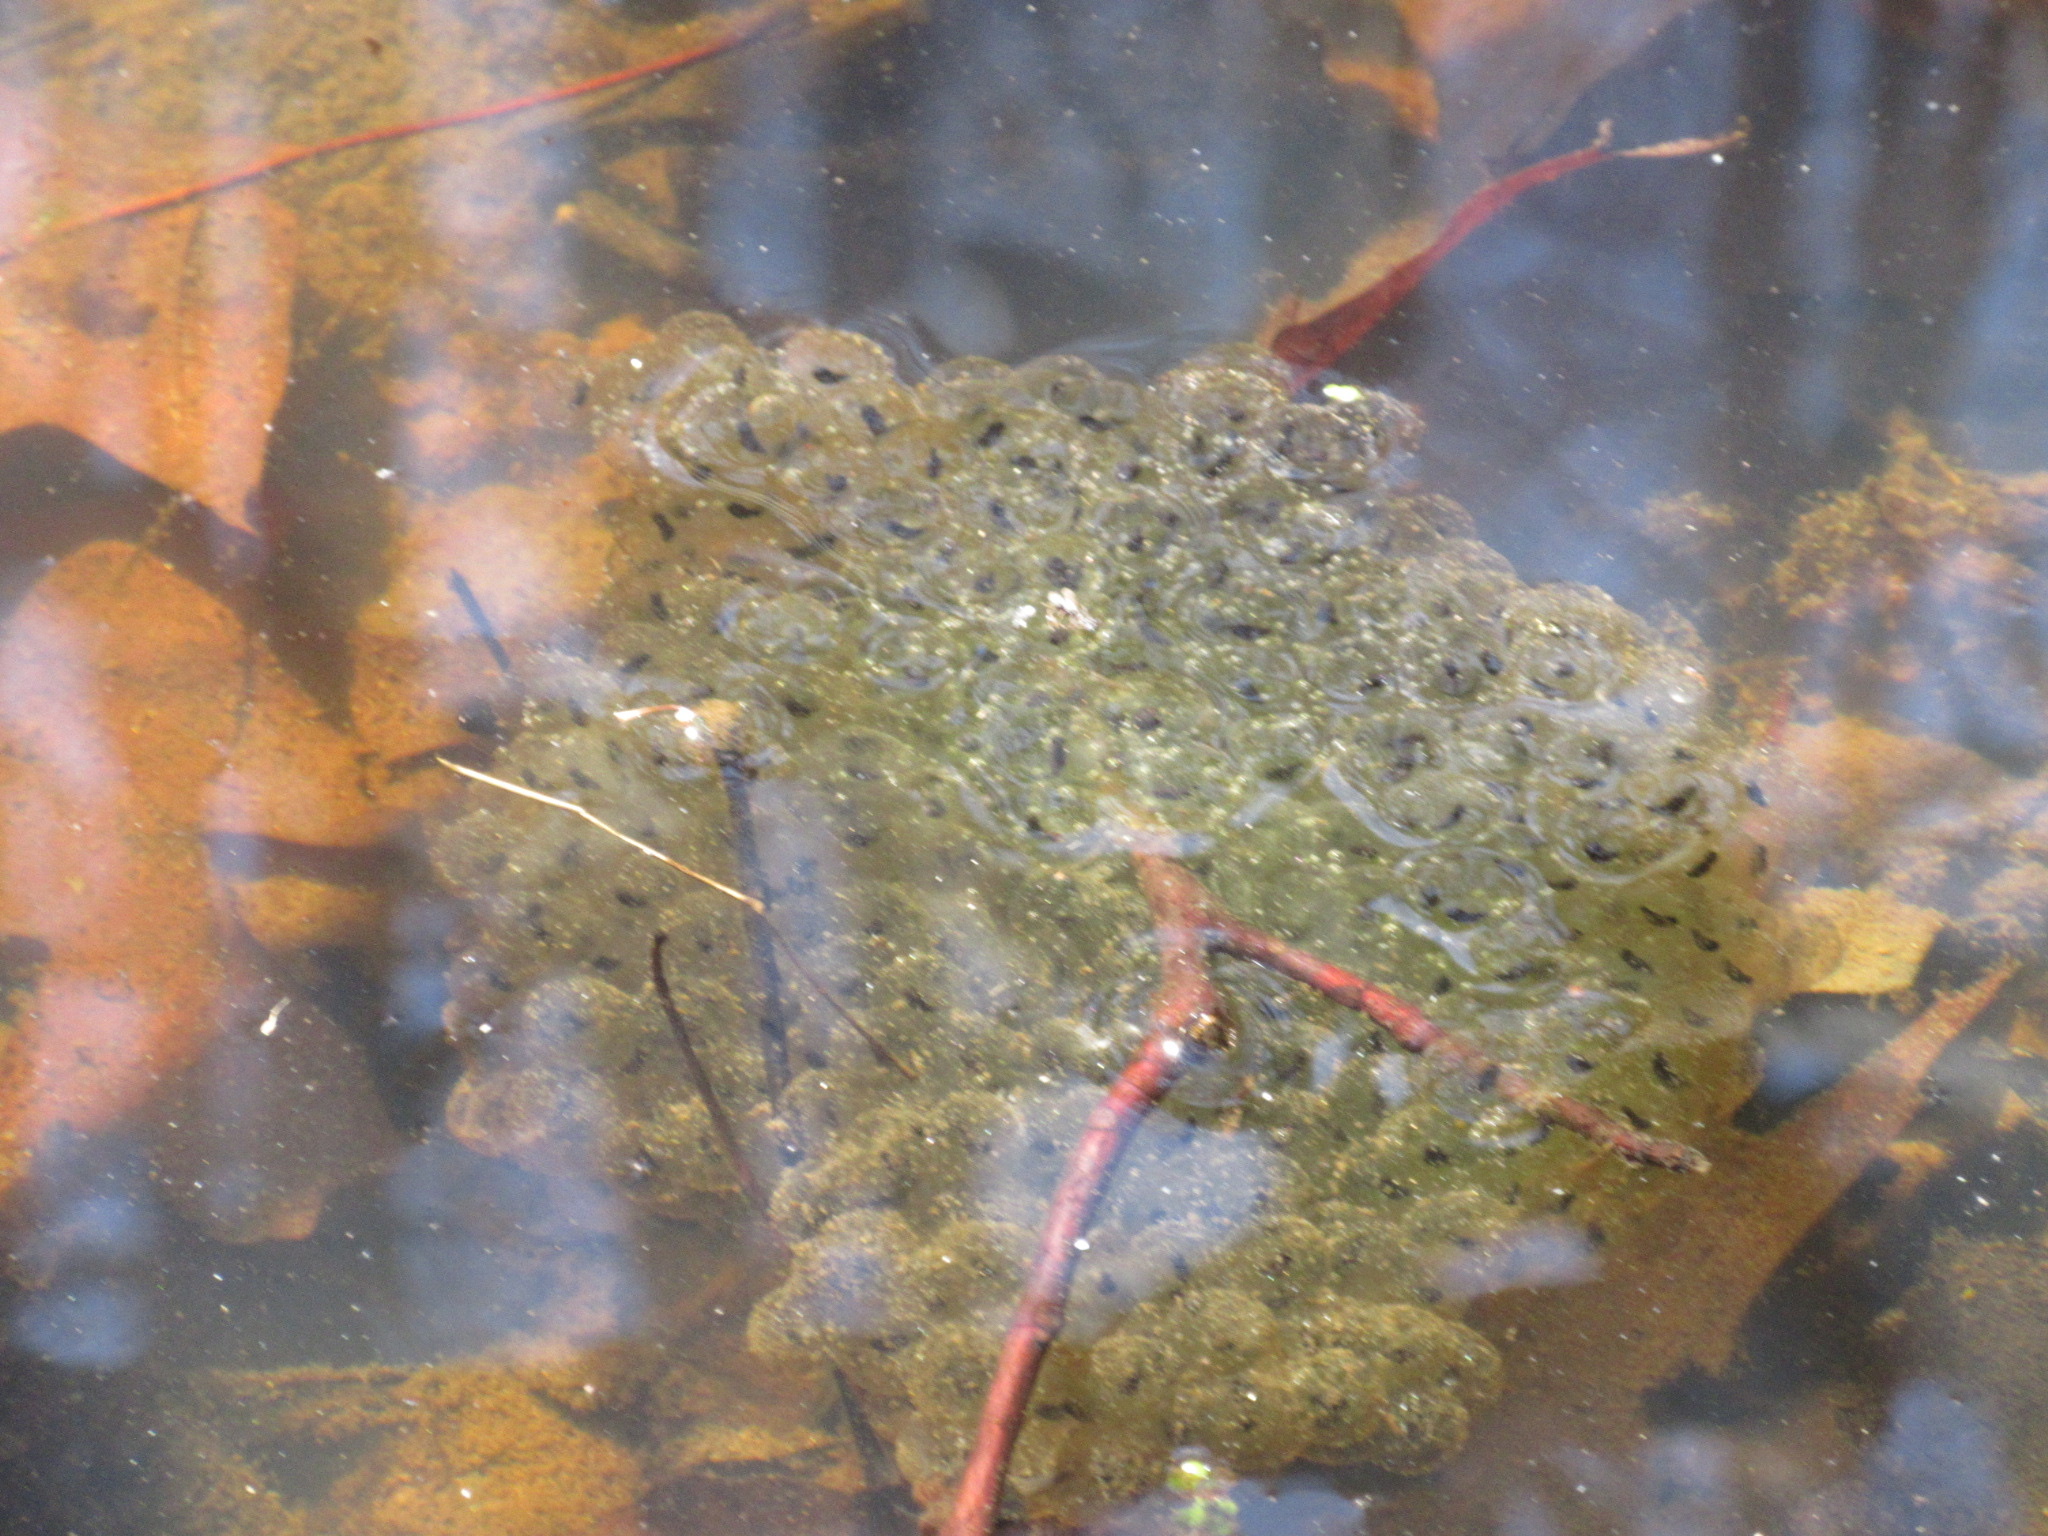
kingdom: Animalia
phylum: Chordata
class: Amphibia
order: Anura
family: Ranidae
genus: Lithobates
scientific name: Lithobates sylvaticus
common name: Wood frog
